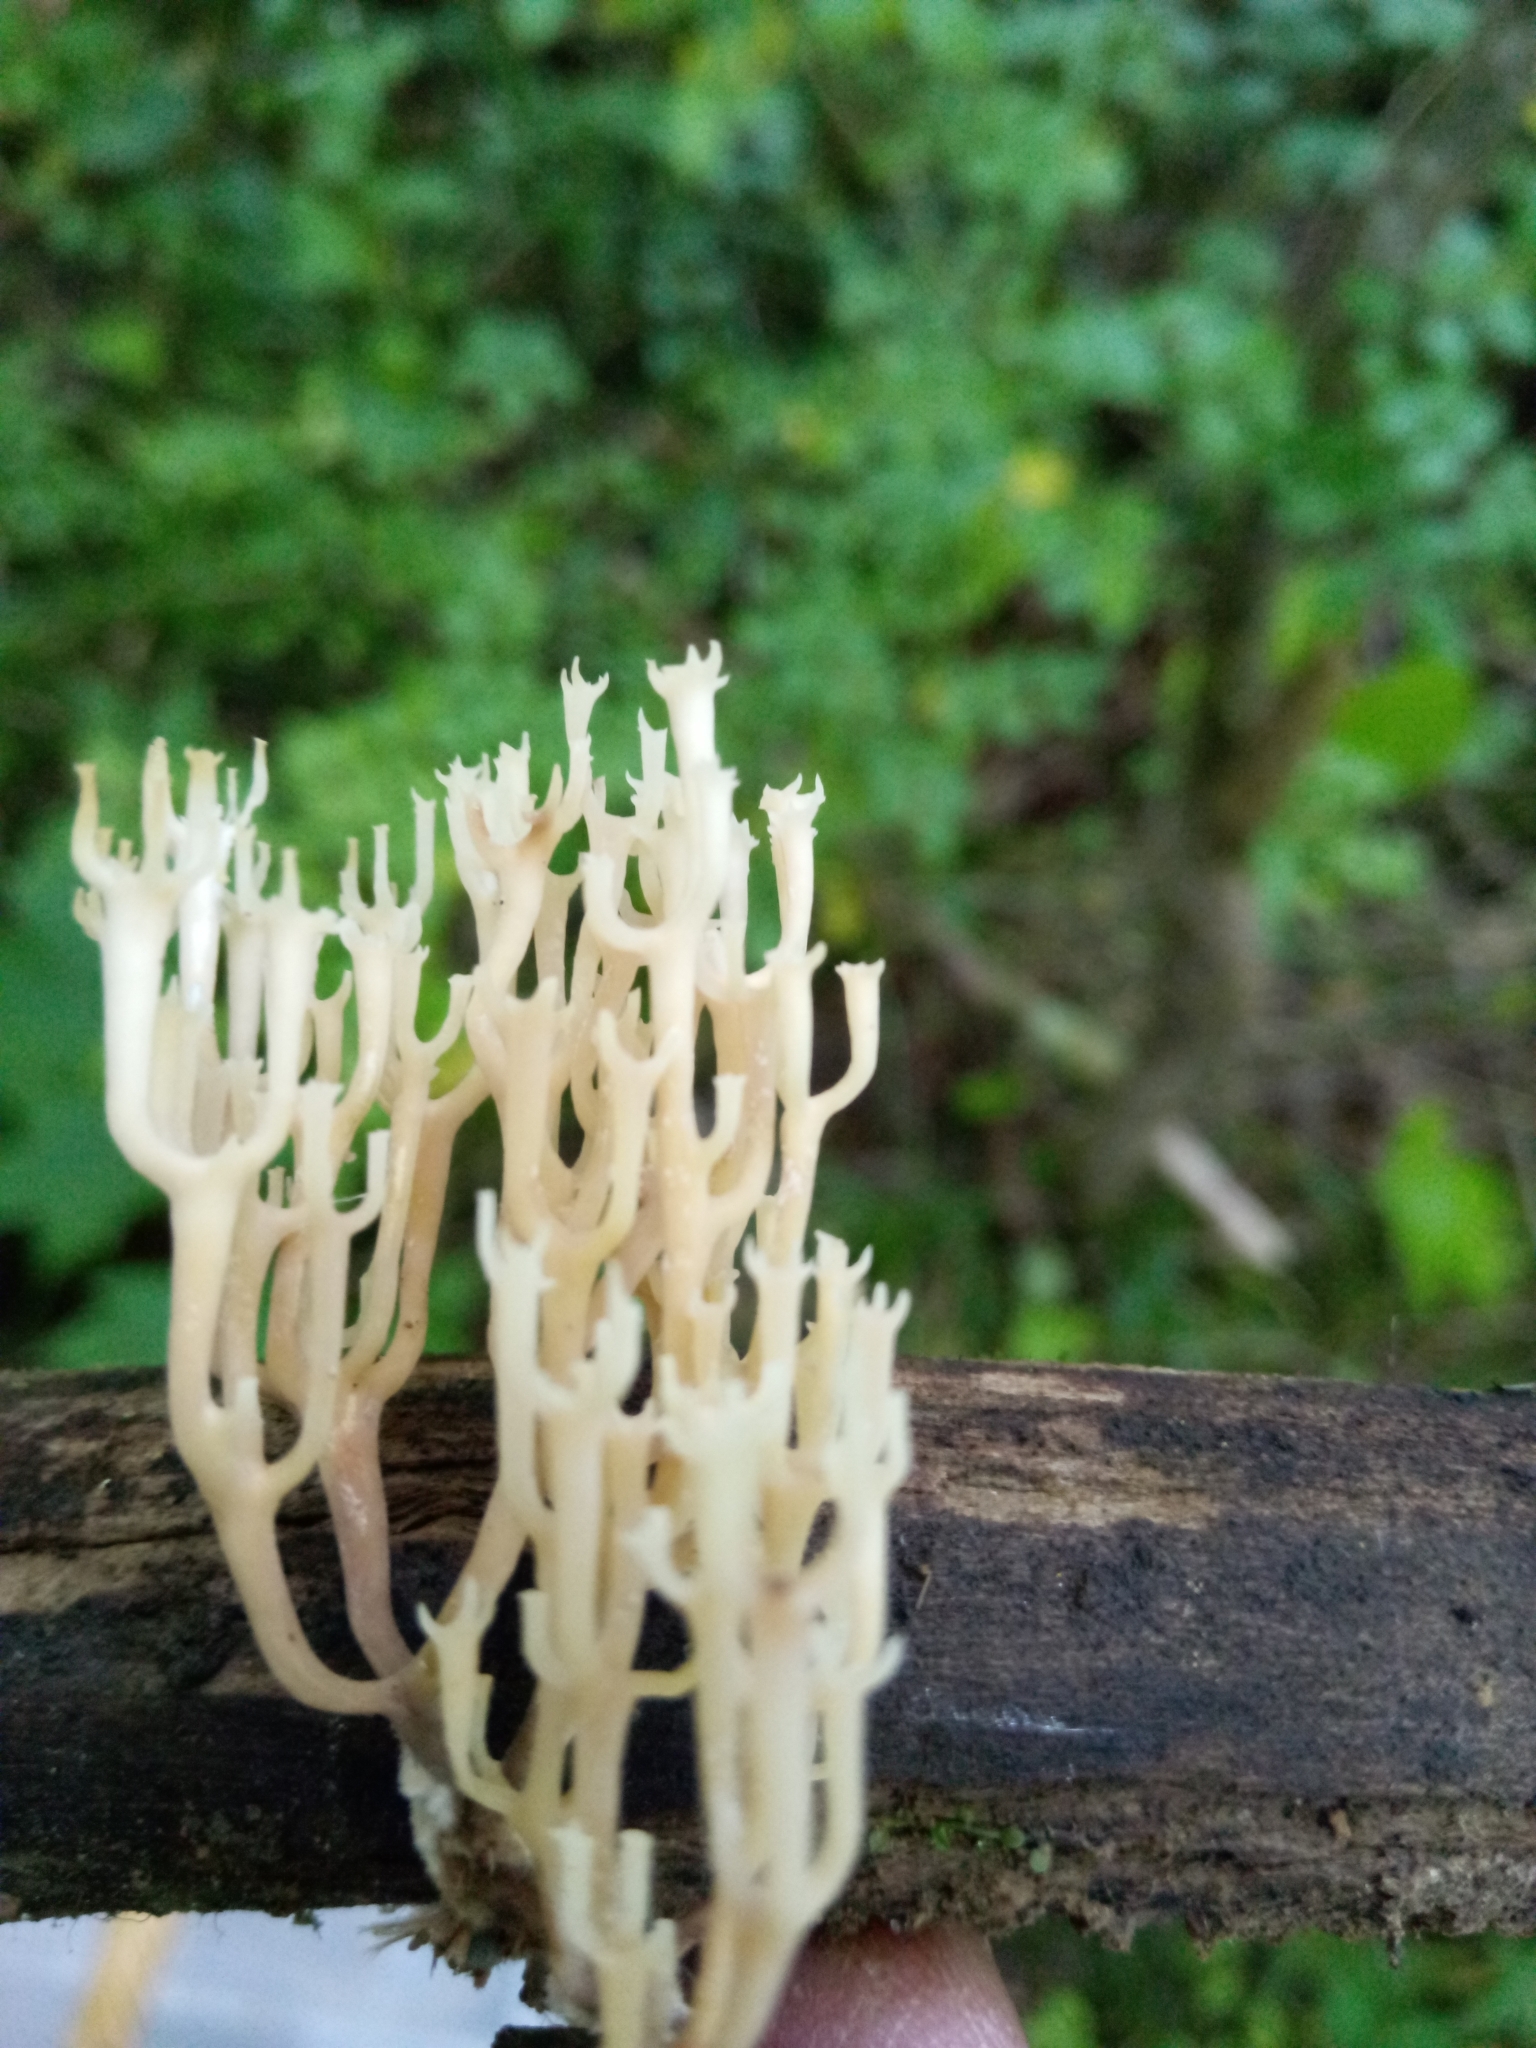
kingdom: Fungi
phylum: Basidiomycota
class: Agaricomycetes
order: Russulales
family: Auriscalpiaceae
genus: Artomyces
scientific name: Artomyces pyxidatus
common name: Crown-tipped coral fungus
